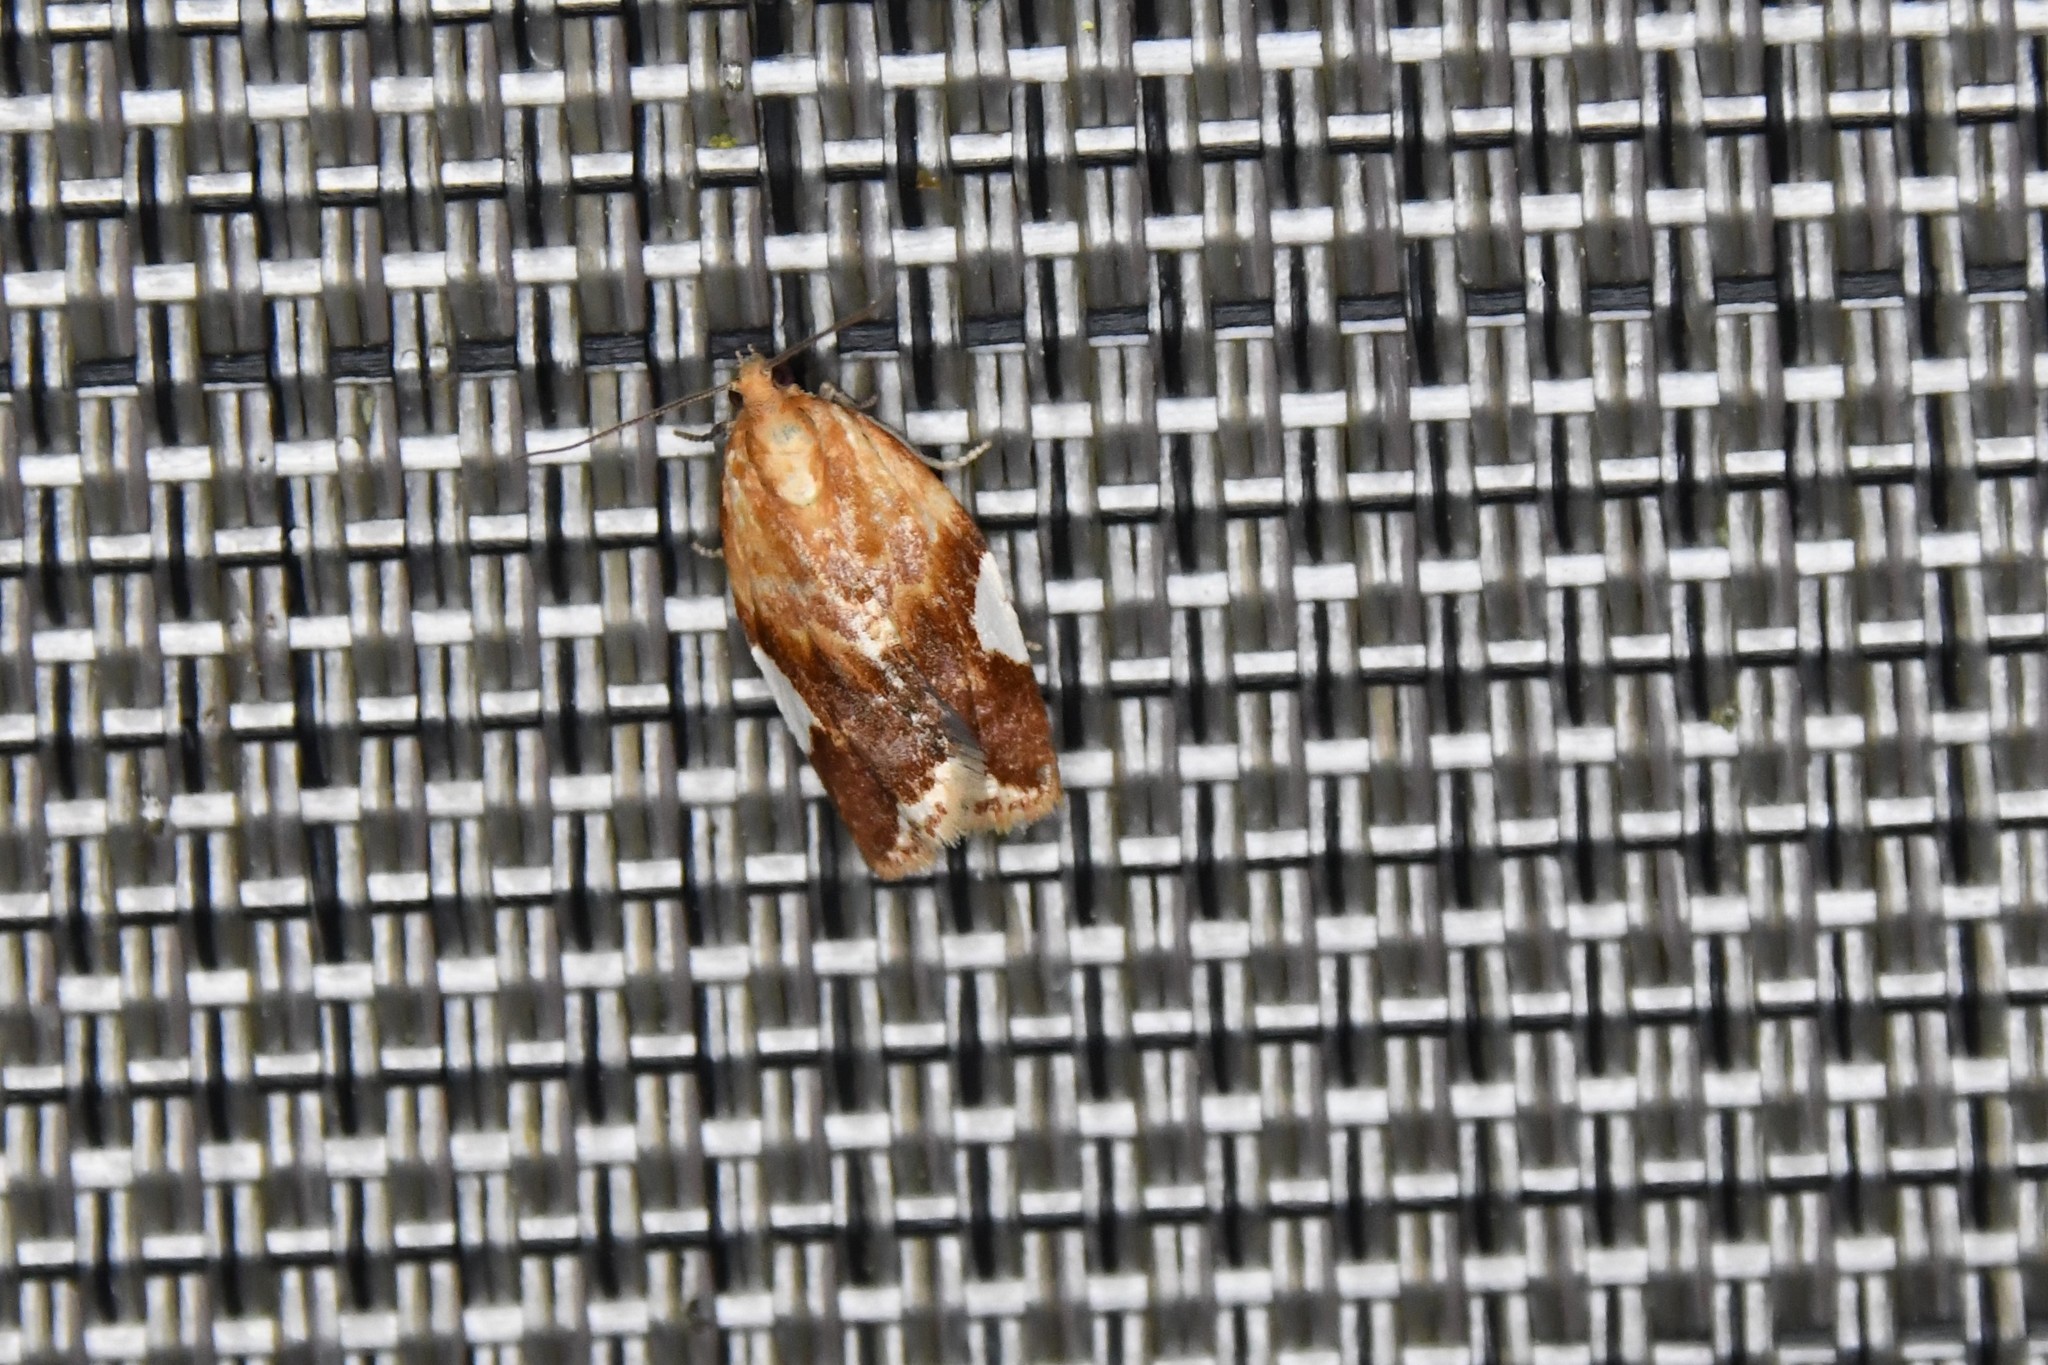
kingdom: Animalia
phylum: Arthropoda
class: Insecta
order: Lepidoptera
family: Tortricidae
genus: Clepsis
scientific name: Clepsis persicana
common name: White triangle tortrix
